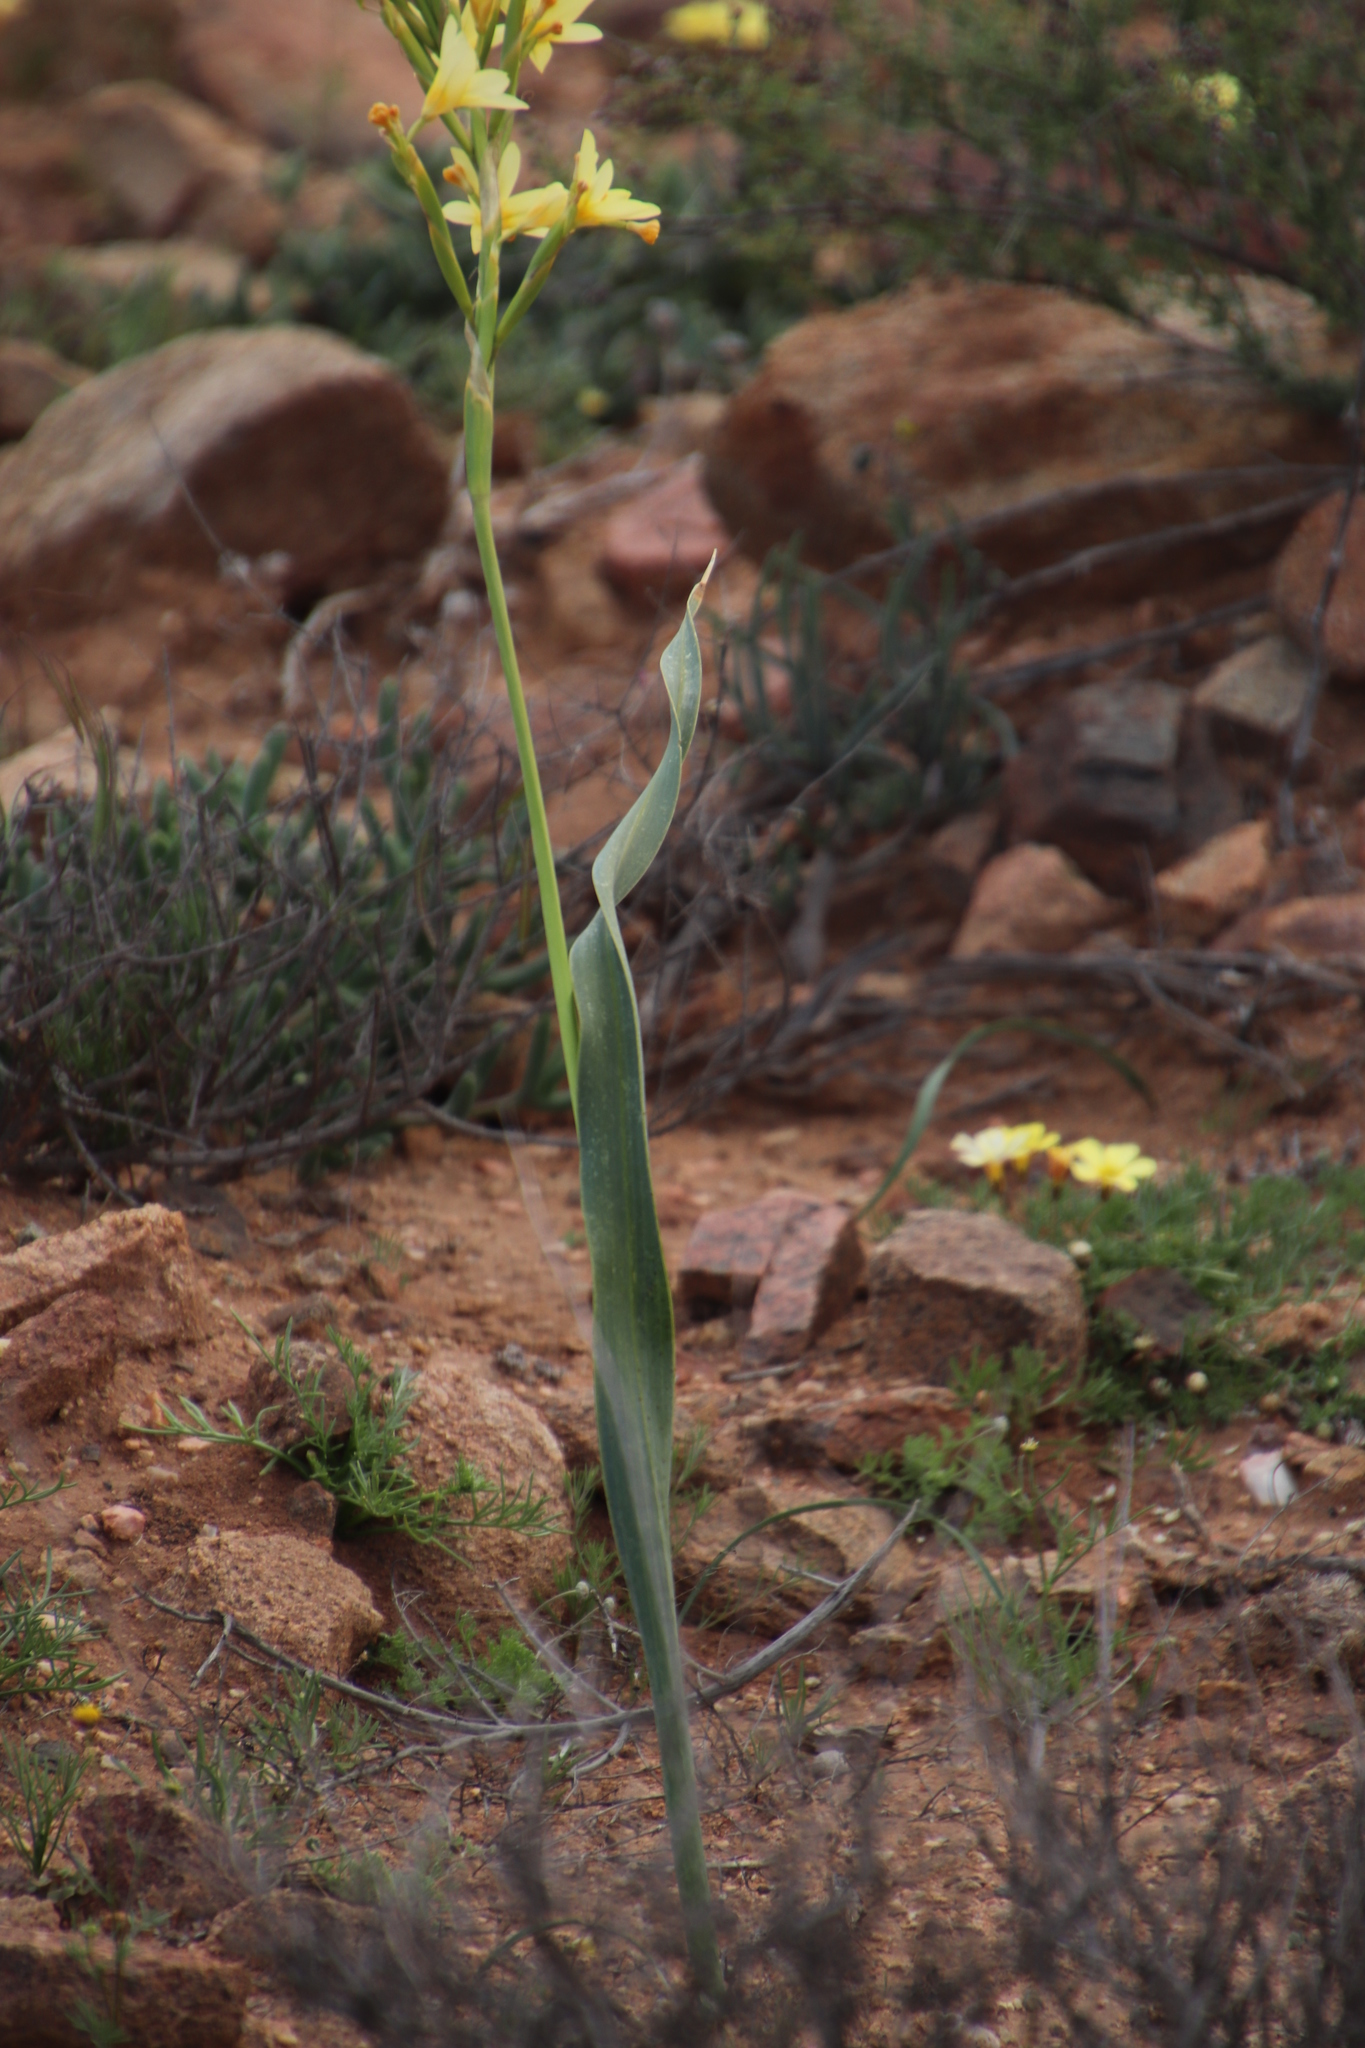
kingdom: Plantae
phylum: Tracheophyta
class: Liliopsida
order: Asparagales
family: Iridaceae
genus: Moraea
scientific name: Moraea bifida
